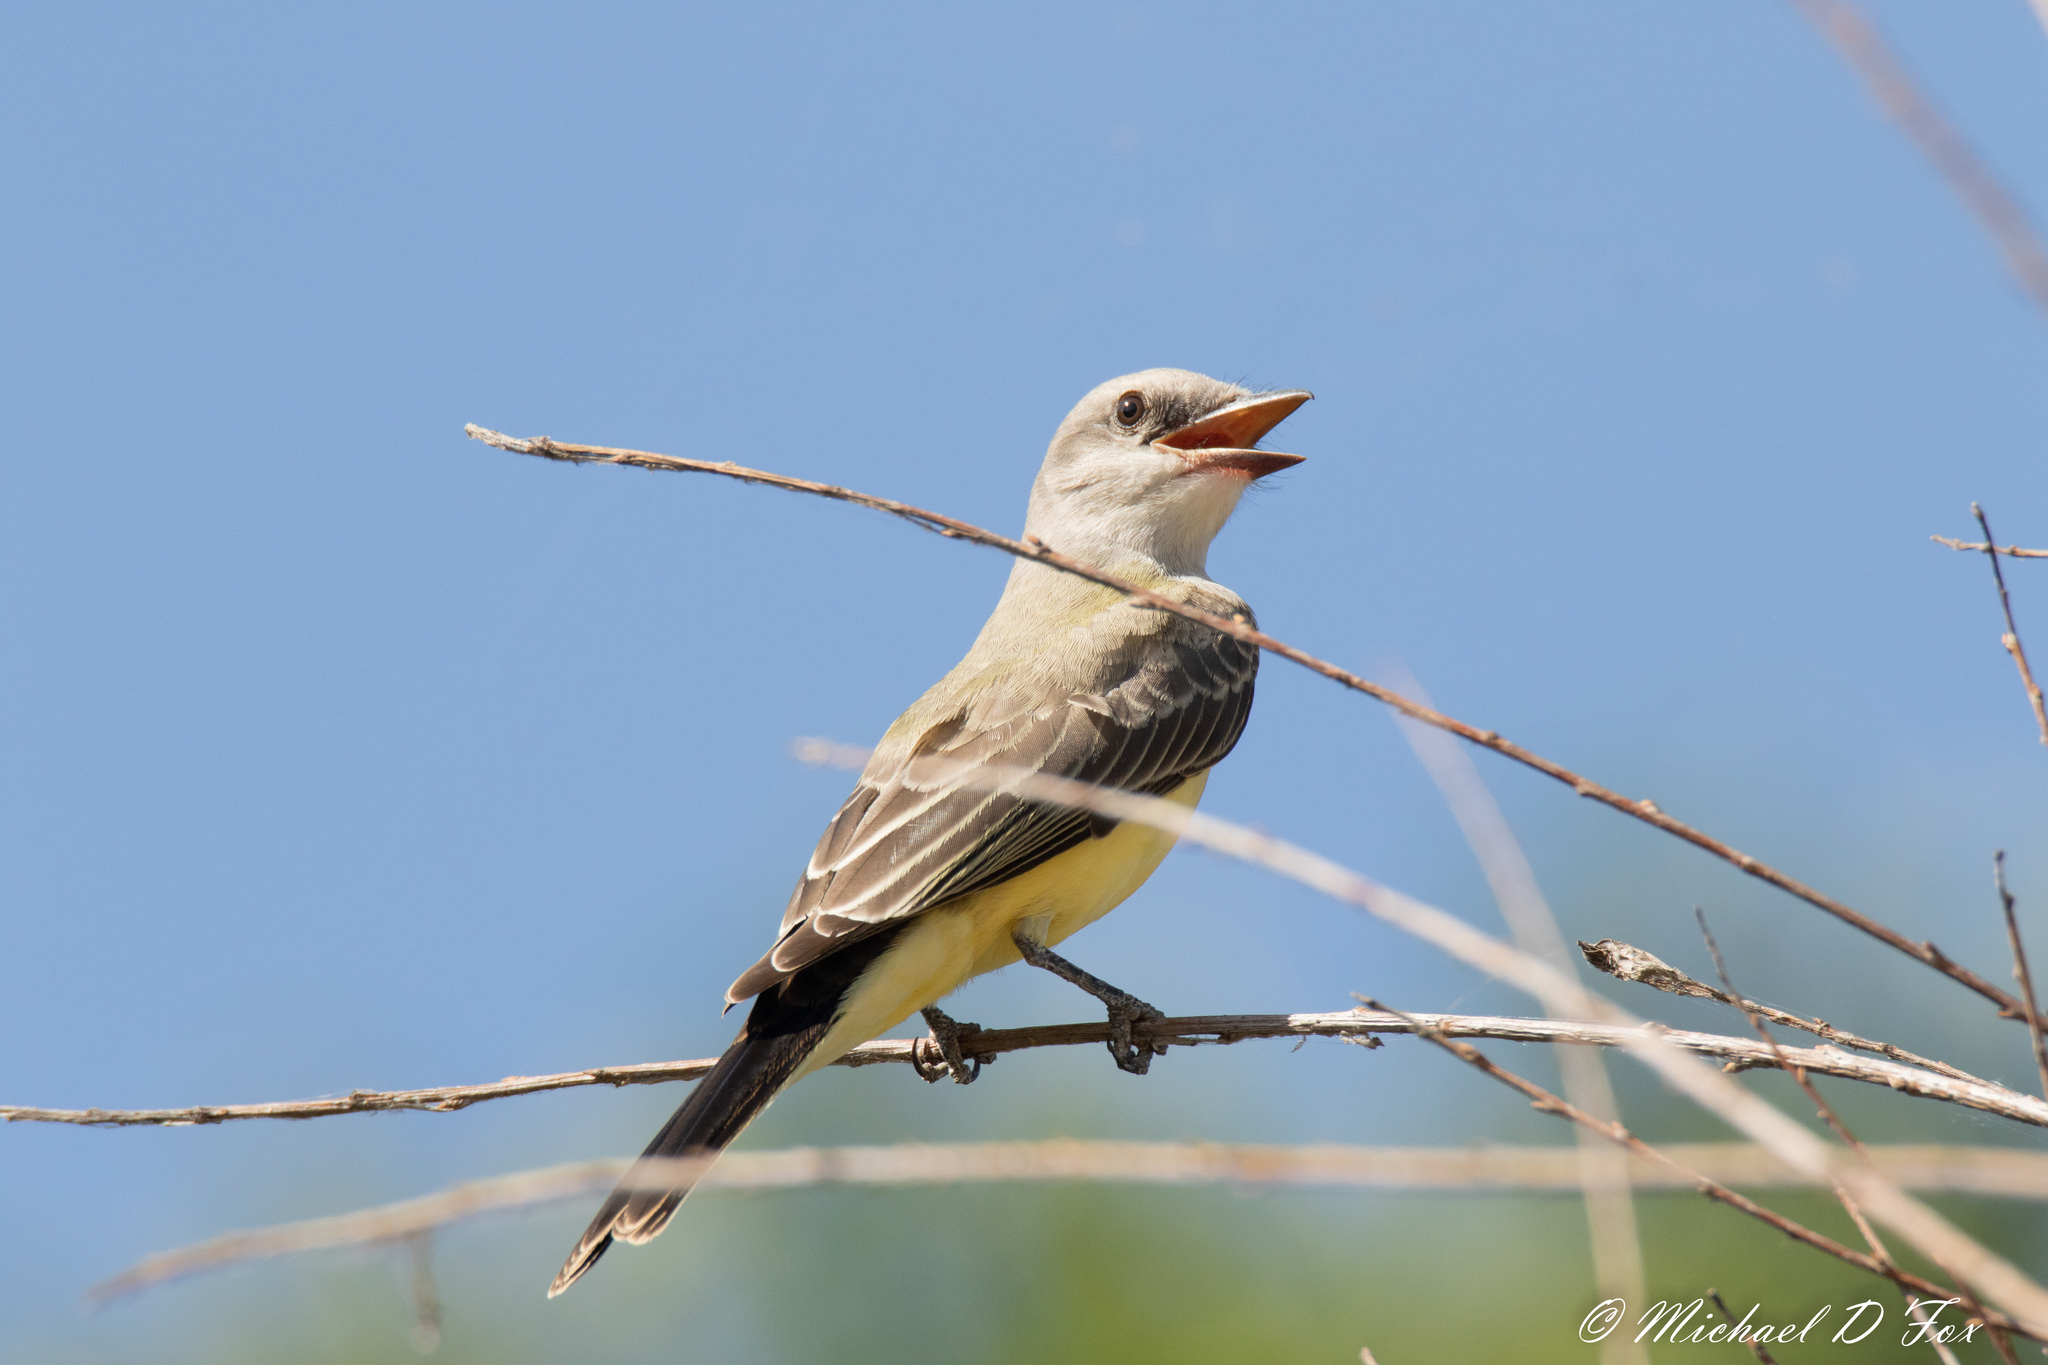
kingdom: Animalia
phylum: Chordata
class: Aves
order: Passeriformes
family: Tyrannidae
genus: Tyrannus
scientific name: Tyrannus verticalis
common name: Western kingbird
